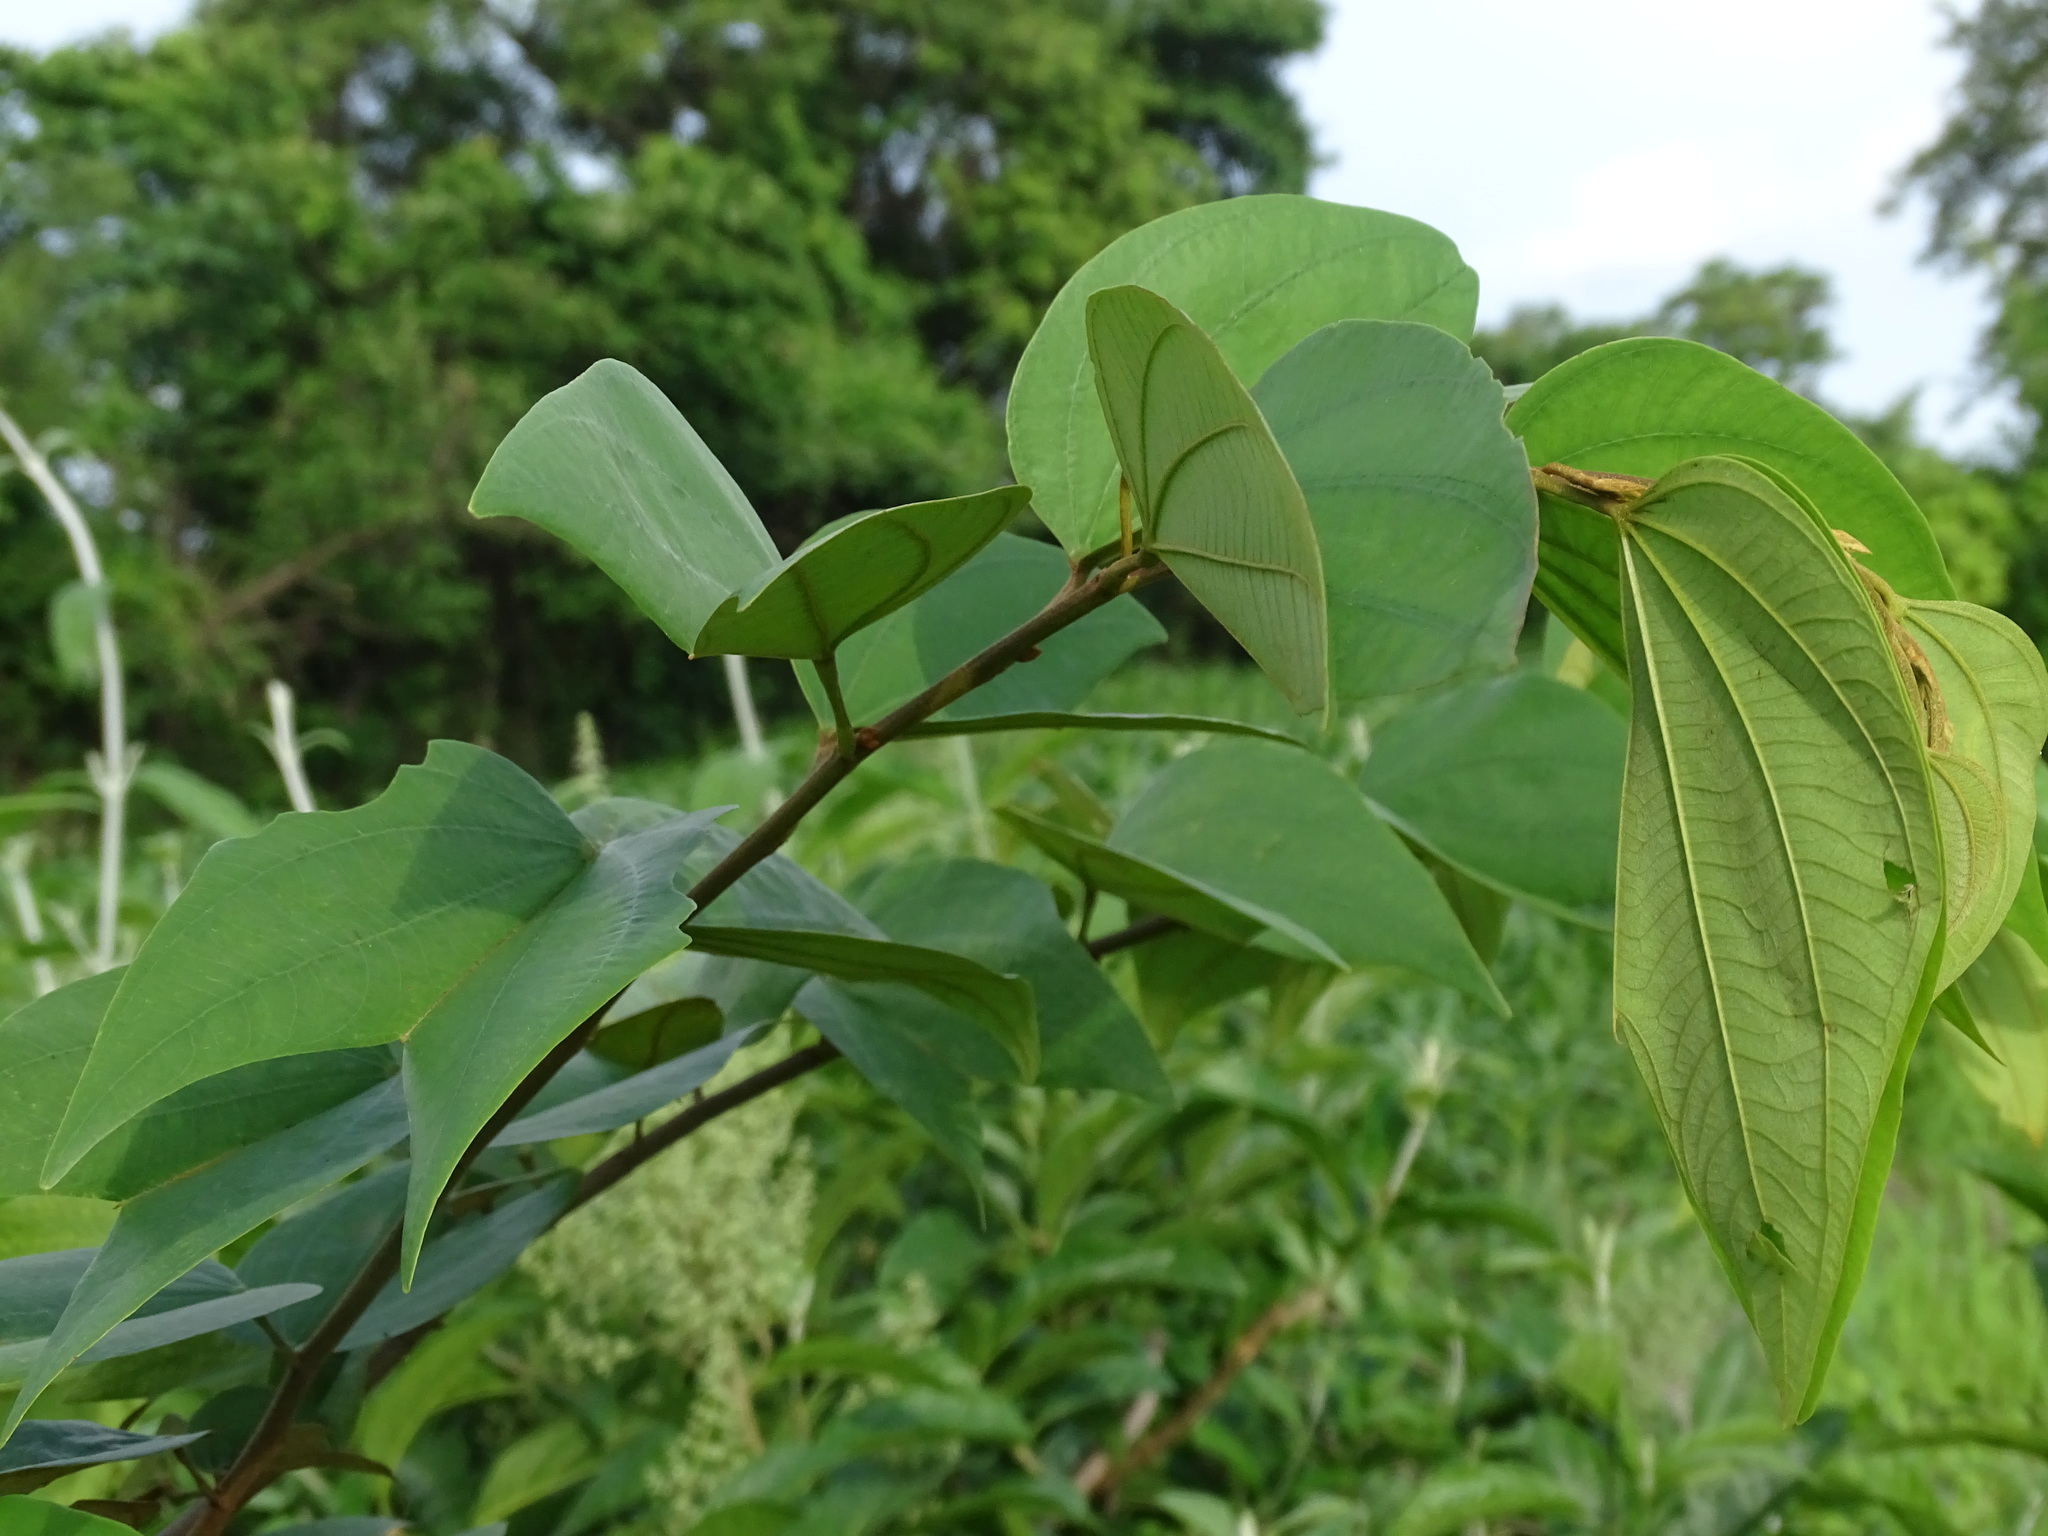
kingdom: Plantae
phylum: Tracheophyta
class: Magnoliopsida
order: Fabales
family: Fabaceae
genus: Bauhinia
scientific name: Bauhinia ungulata
